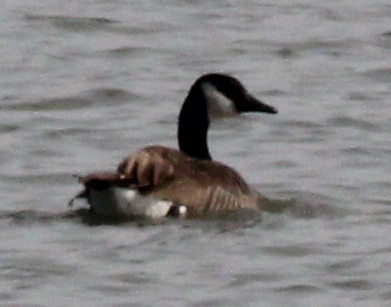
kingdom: Animalia
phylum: Chordata
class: Aves
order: Anseriformes
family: Anatidae
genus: Branta
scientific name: Branta canadensis
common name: Canada goose
